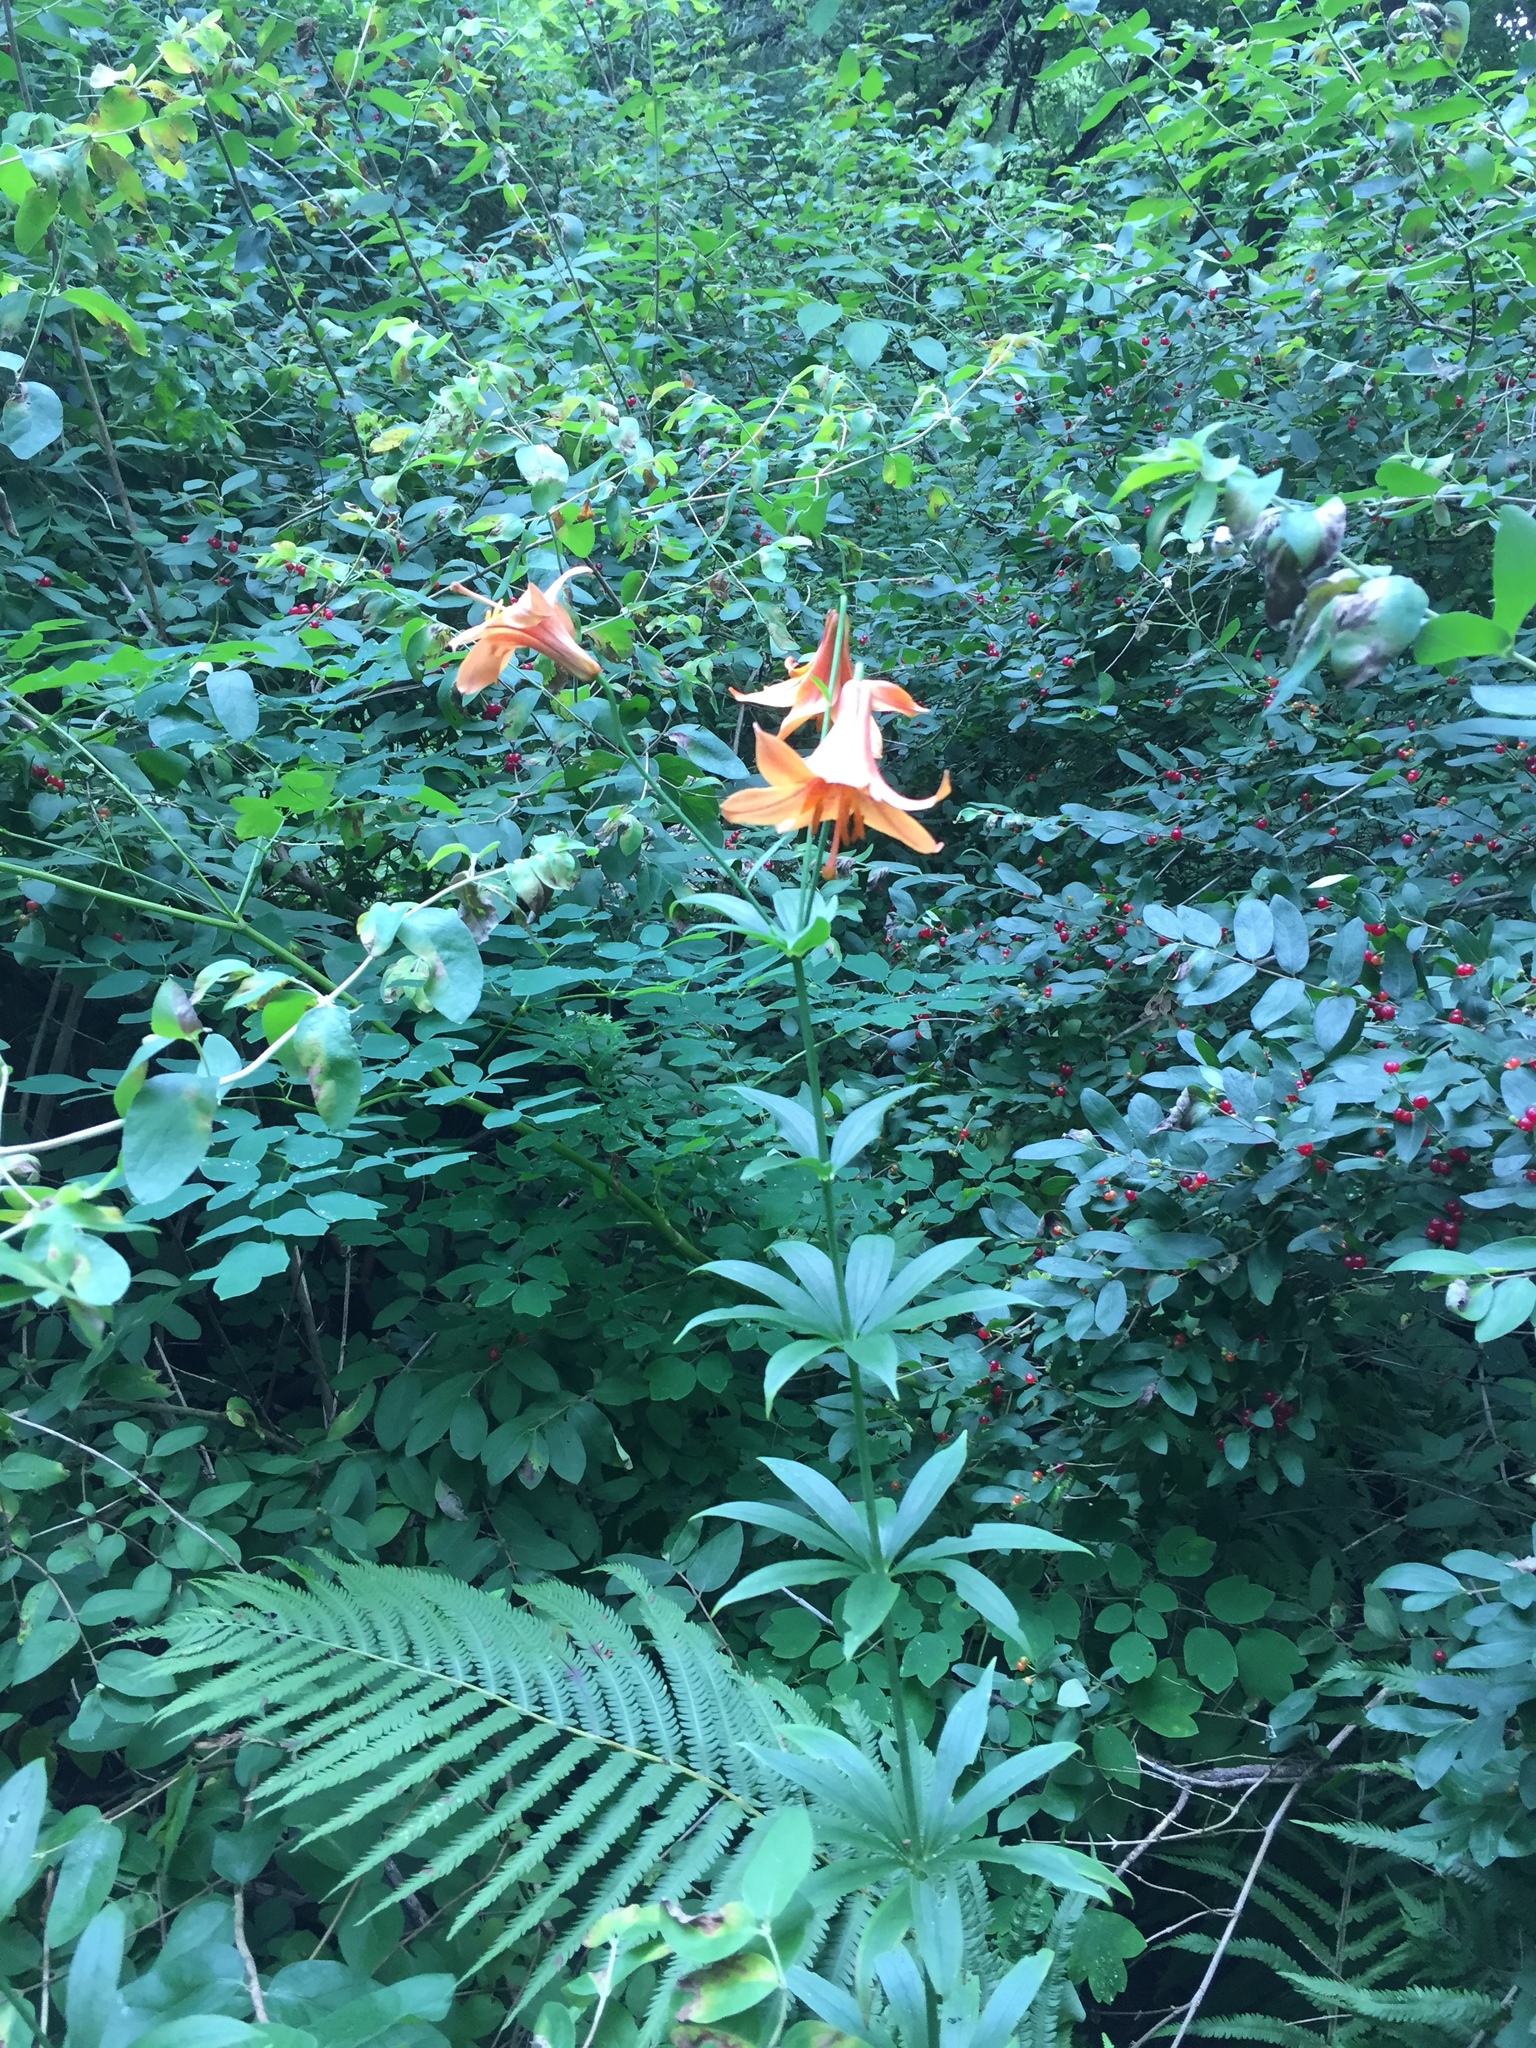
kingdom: Plantae
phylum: Tracheophyta
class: Liliopsida
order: Liliales
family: Liliaceae
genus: Lilium
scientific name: Lilium canadense
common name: Canada lily
